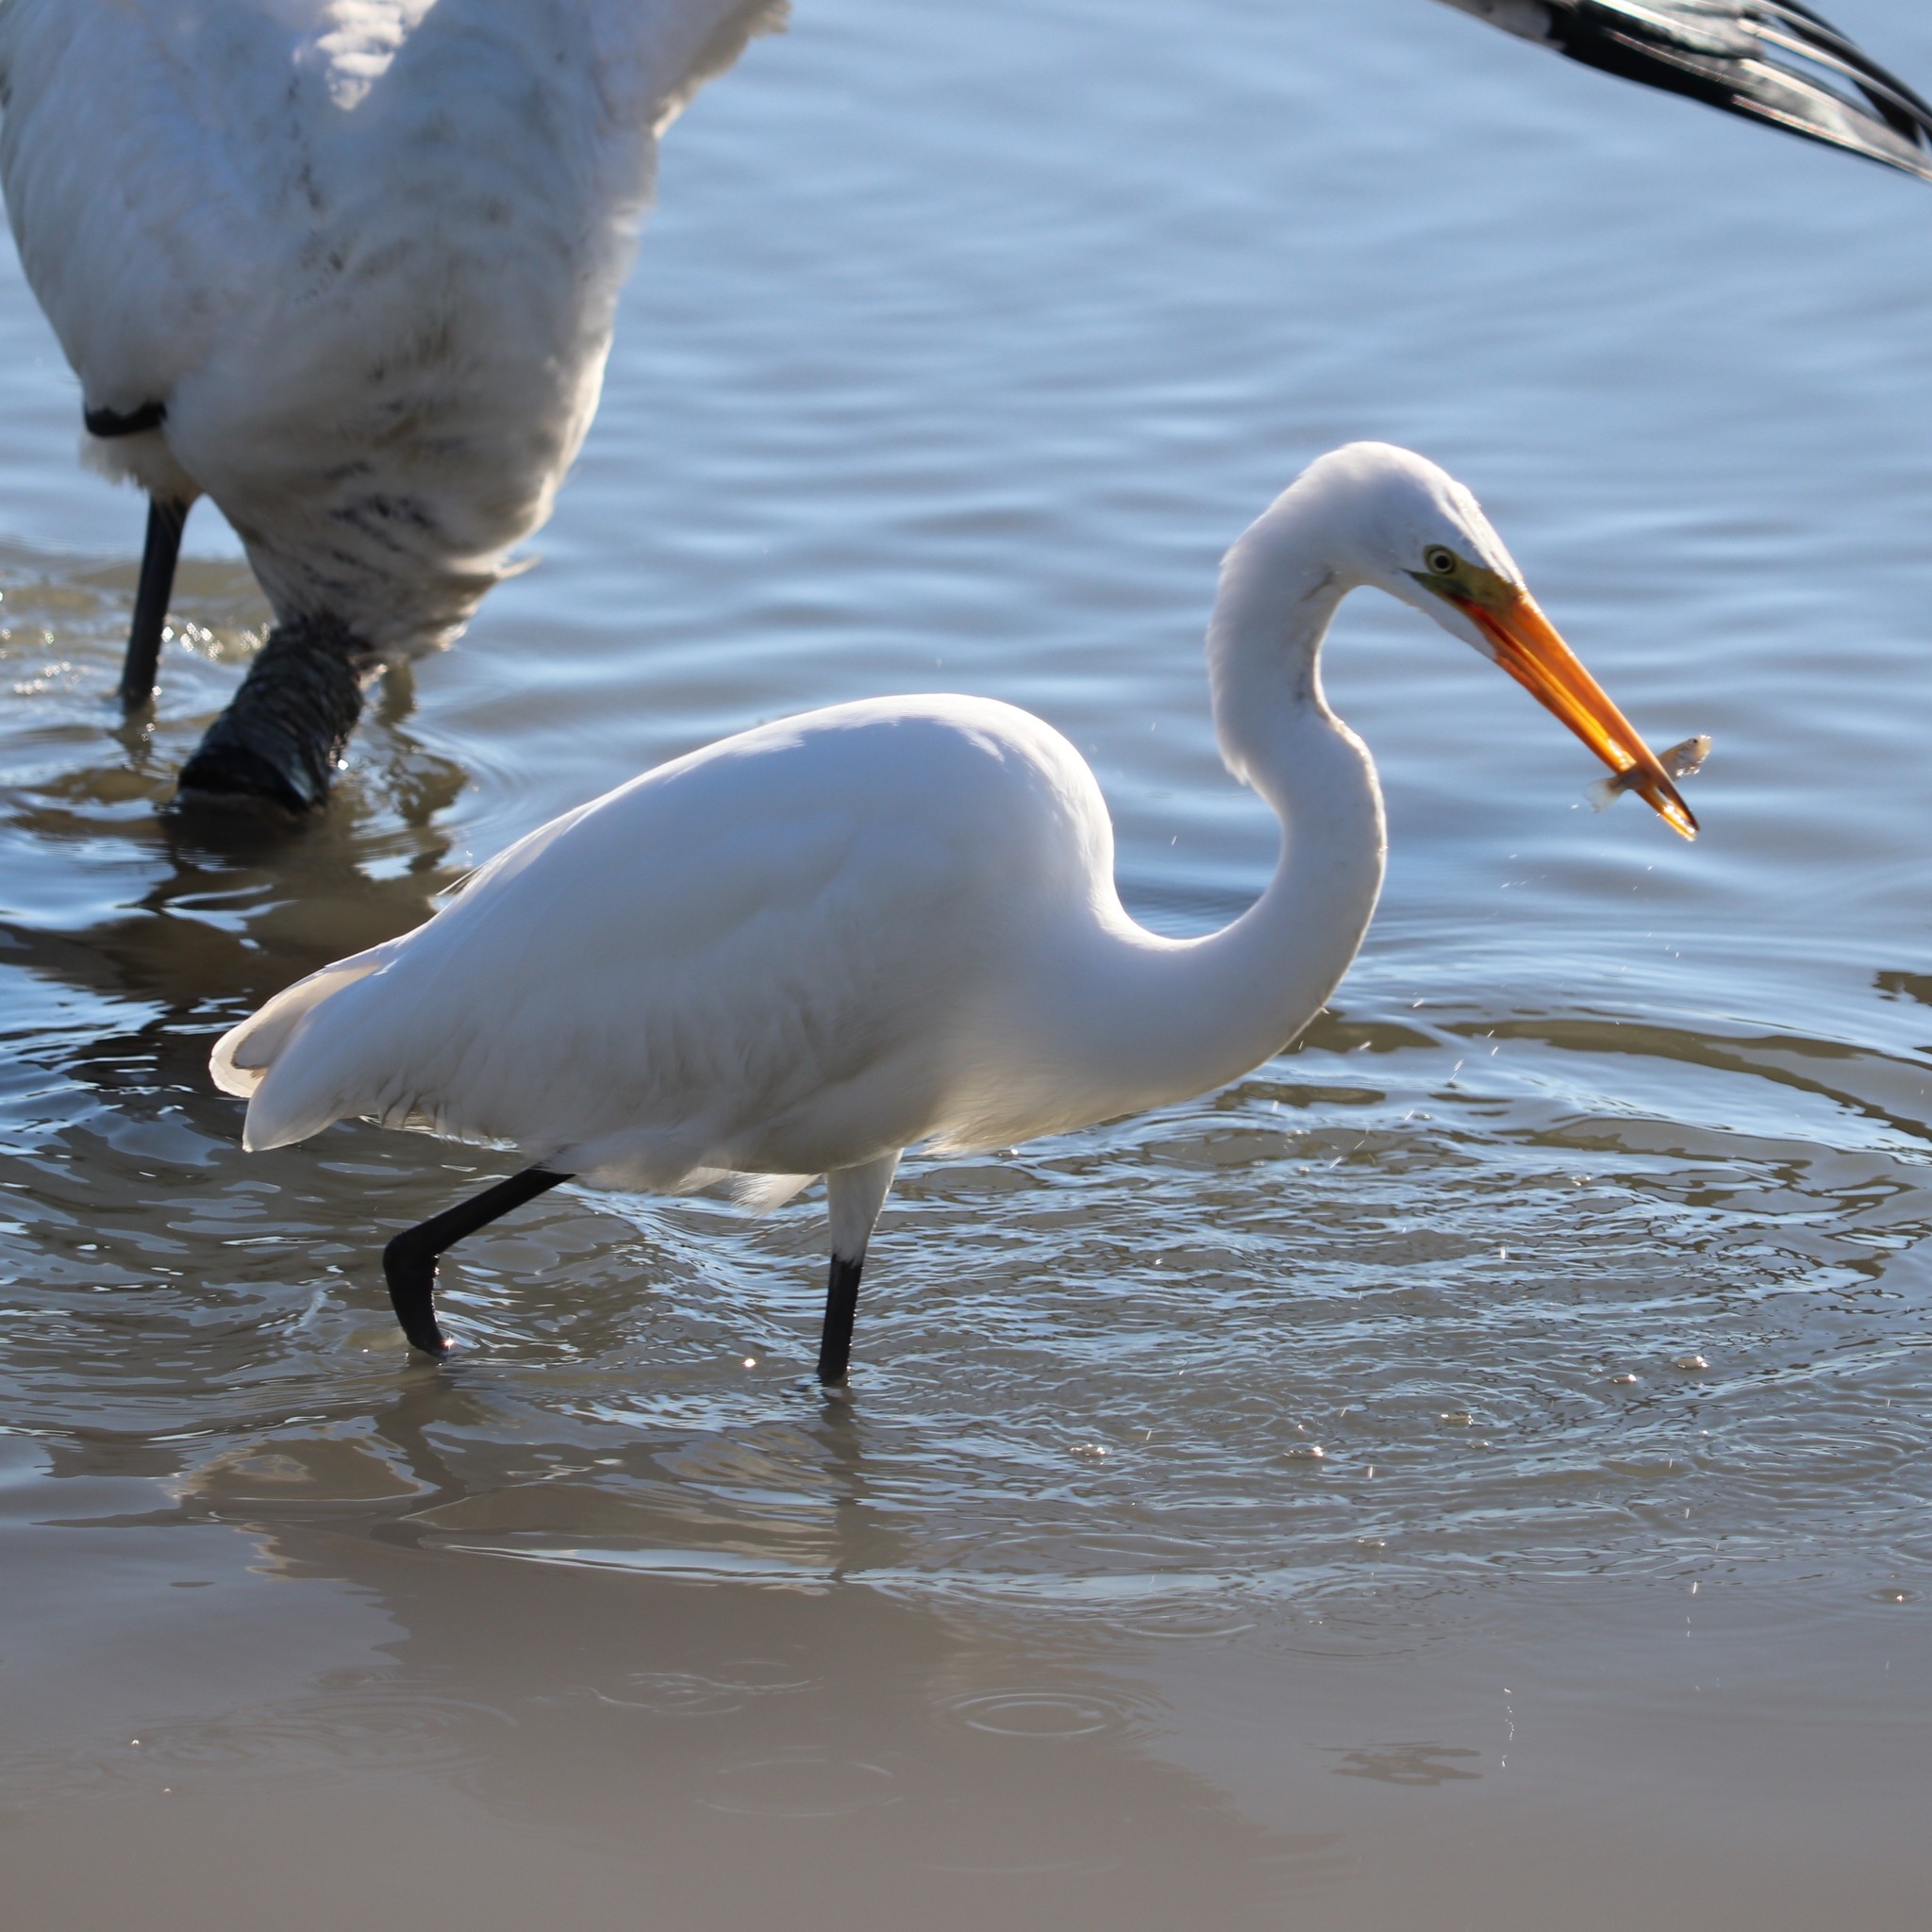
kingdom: Animalia
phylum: Chordata
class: Aves
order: Pelecaniformes
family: Ardeidae
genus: Ardea
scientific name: Ardea alba
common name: Great egret
